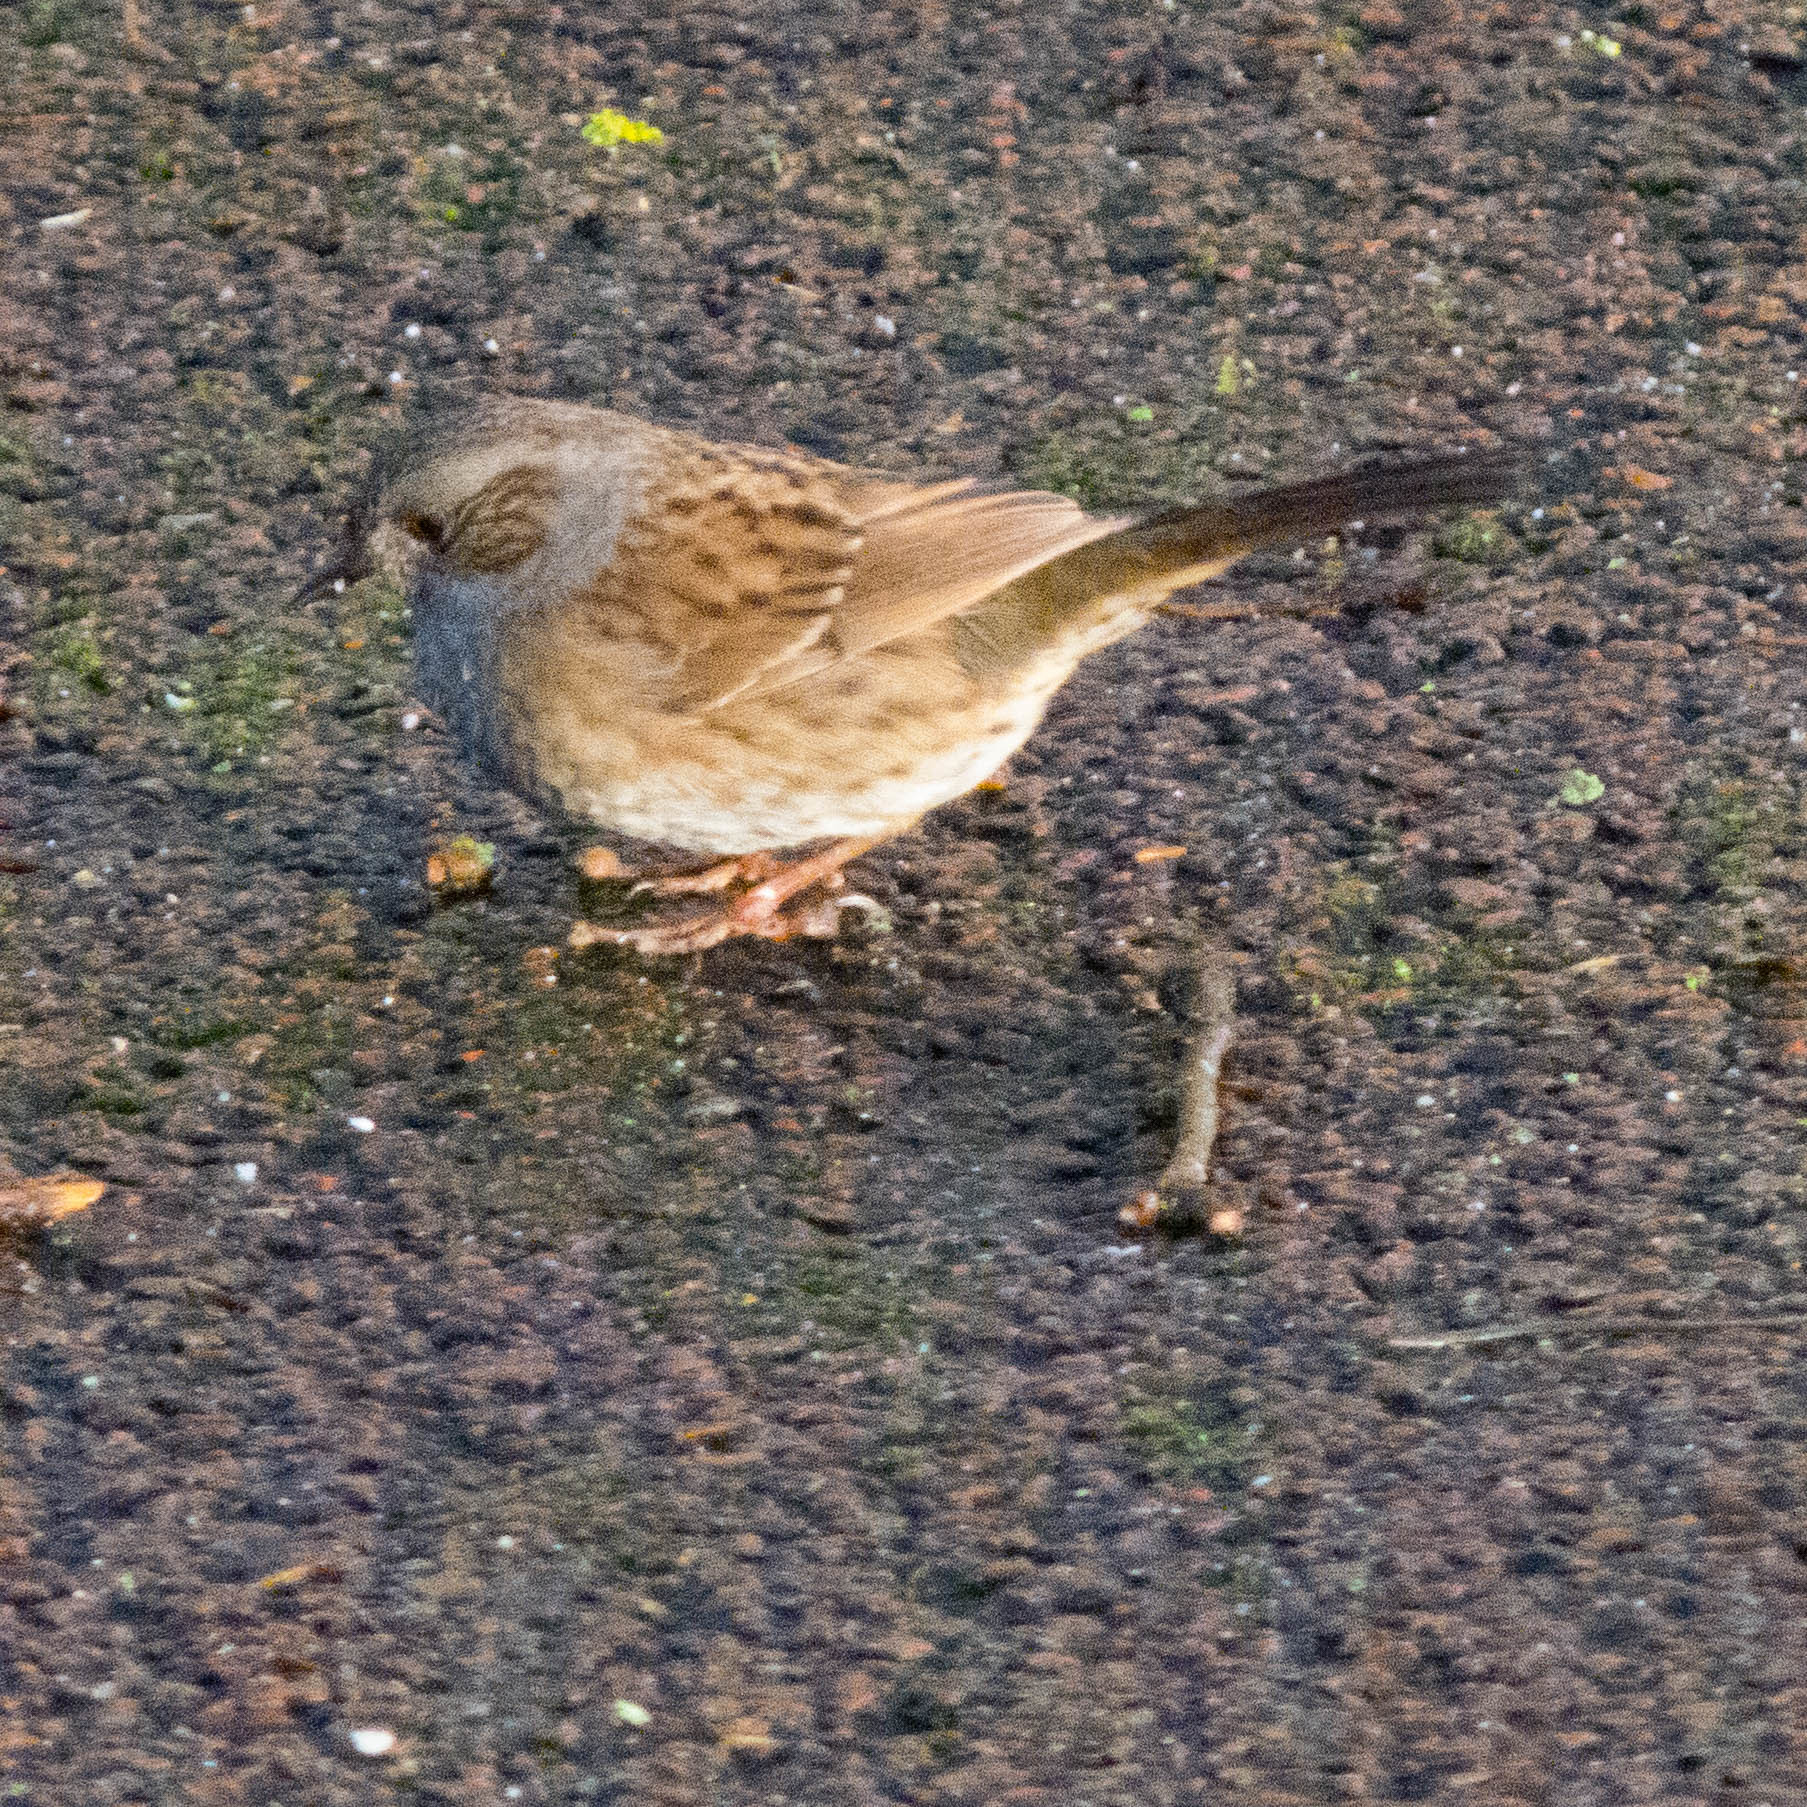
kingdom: Animalia
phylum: Chordata
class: Aves
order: Passeriformes
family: Prunellidae
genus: Prunella
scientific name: Prunella modularis
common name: Dunnock
